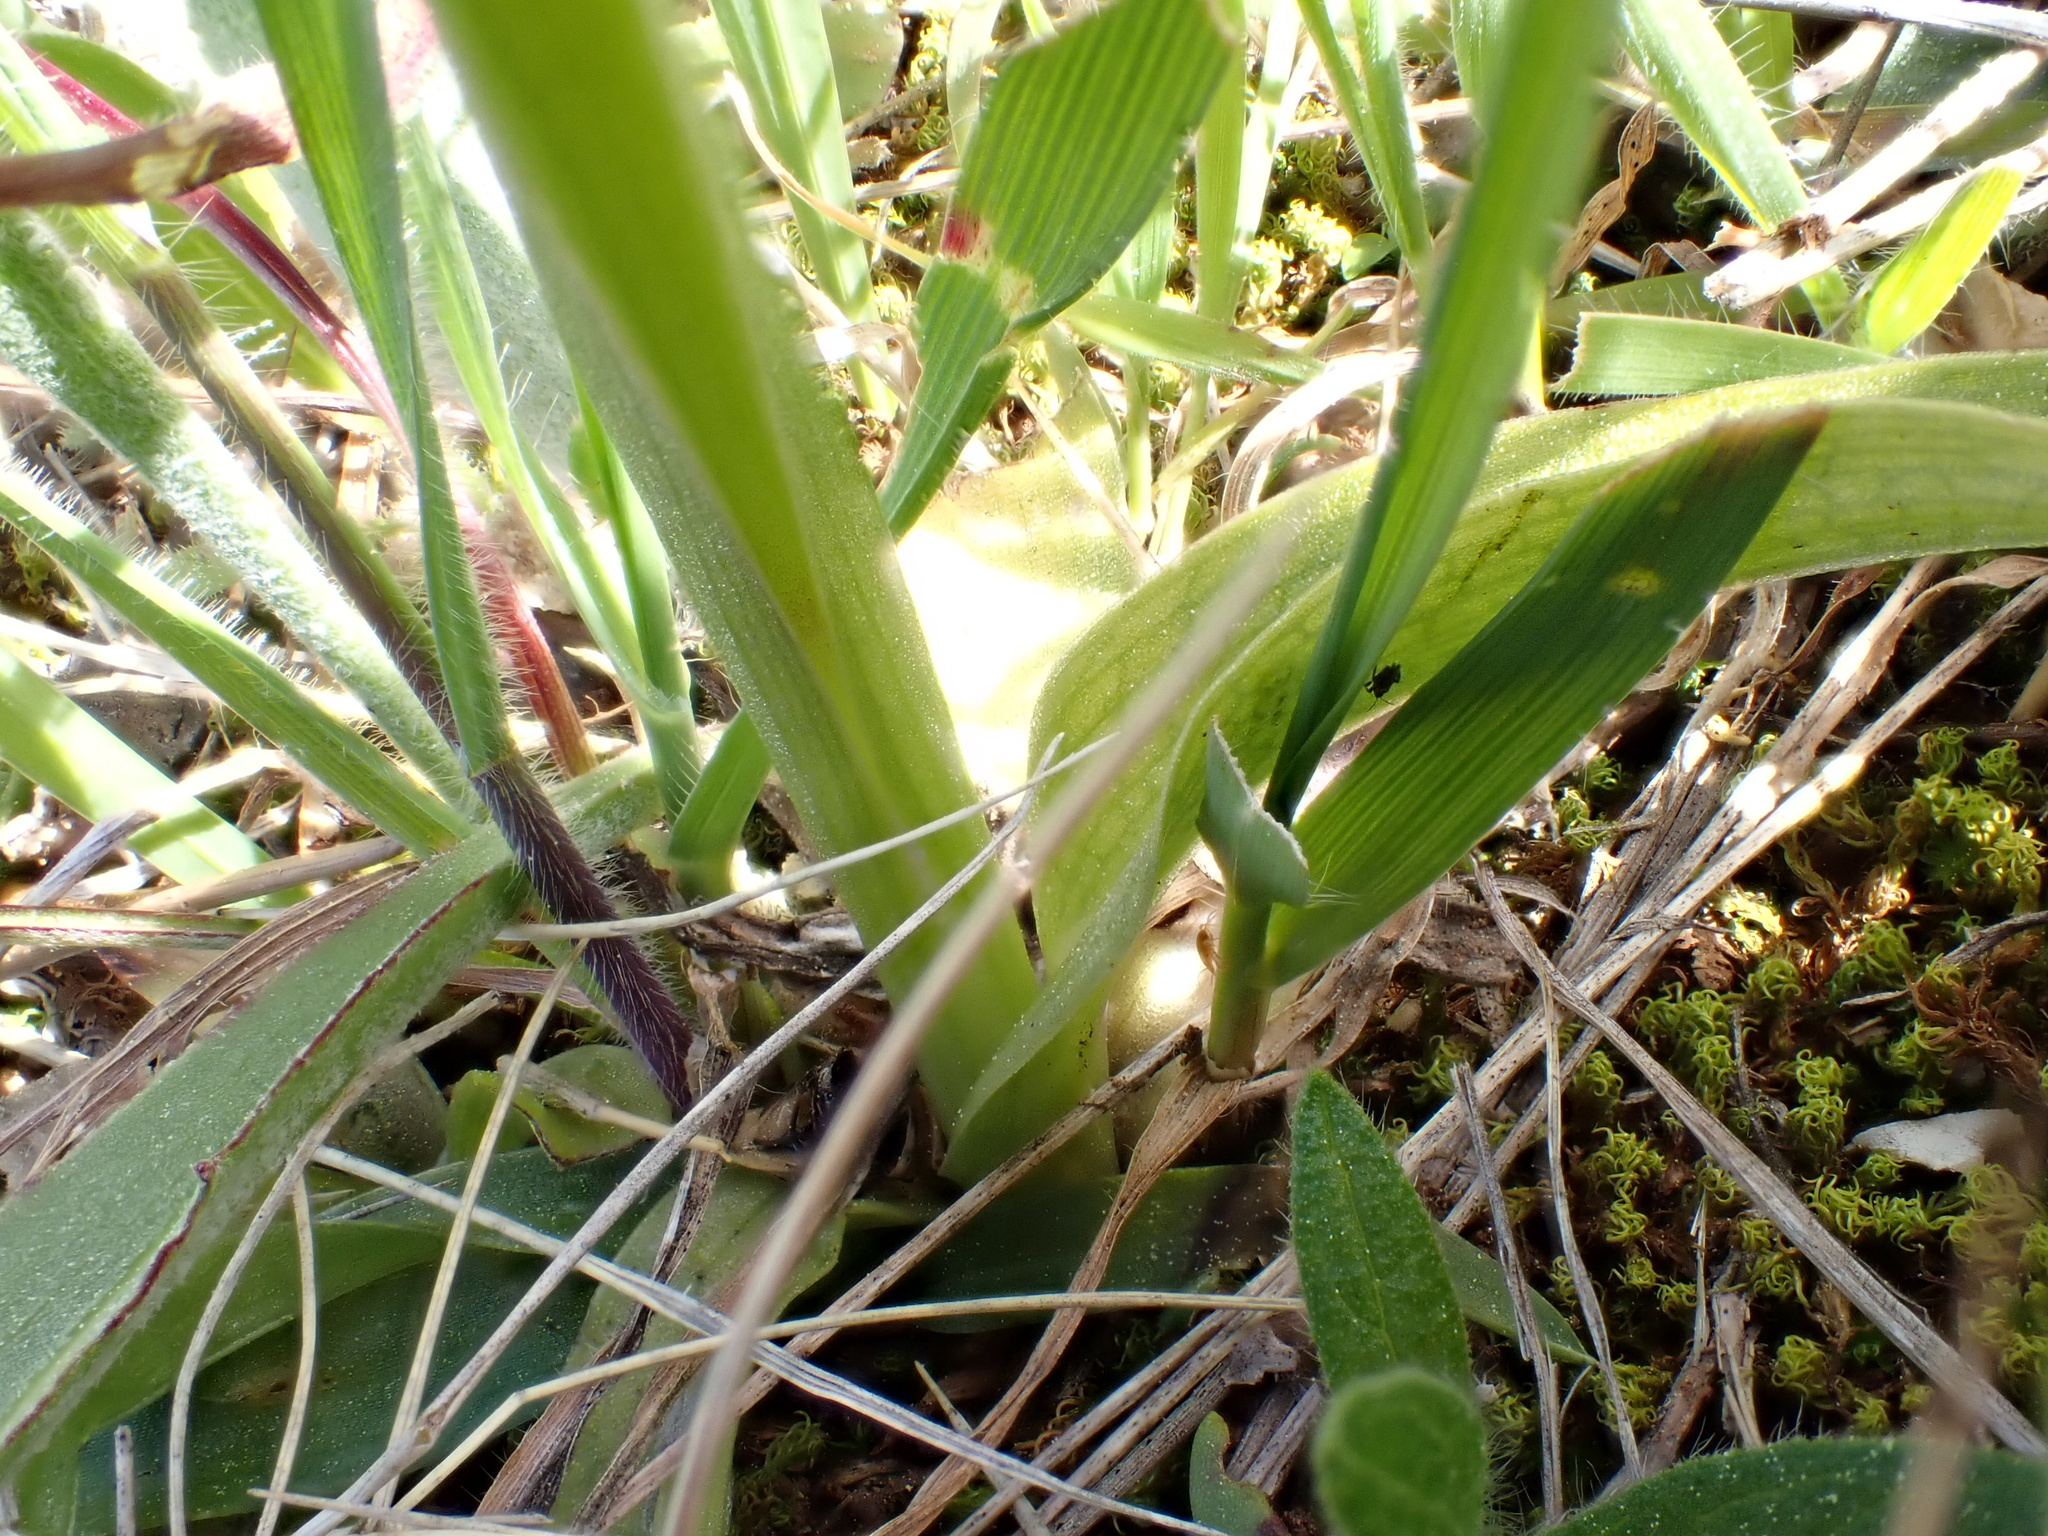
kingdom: Plantae
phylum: Tracheophyta
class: Liliopsida
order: Asparagales
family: Orchidaceae
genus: Anacamptis
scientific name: Anacamptis morio
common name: Green-winged orchid
